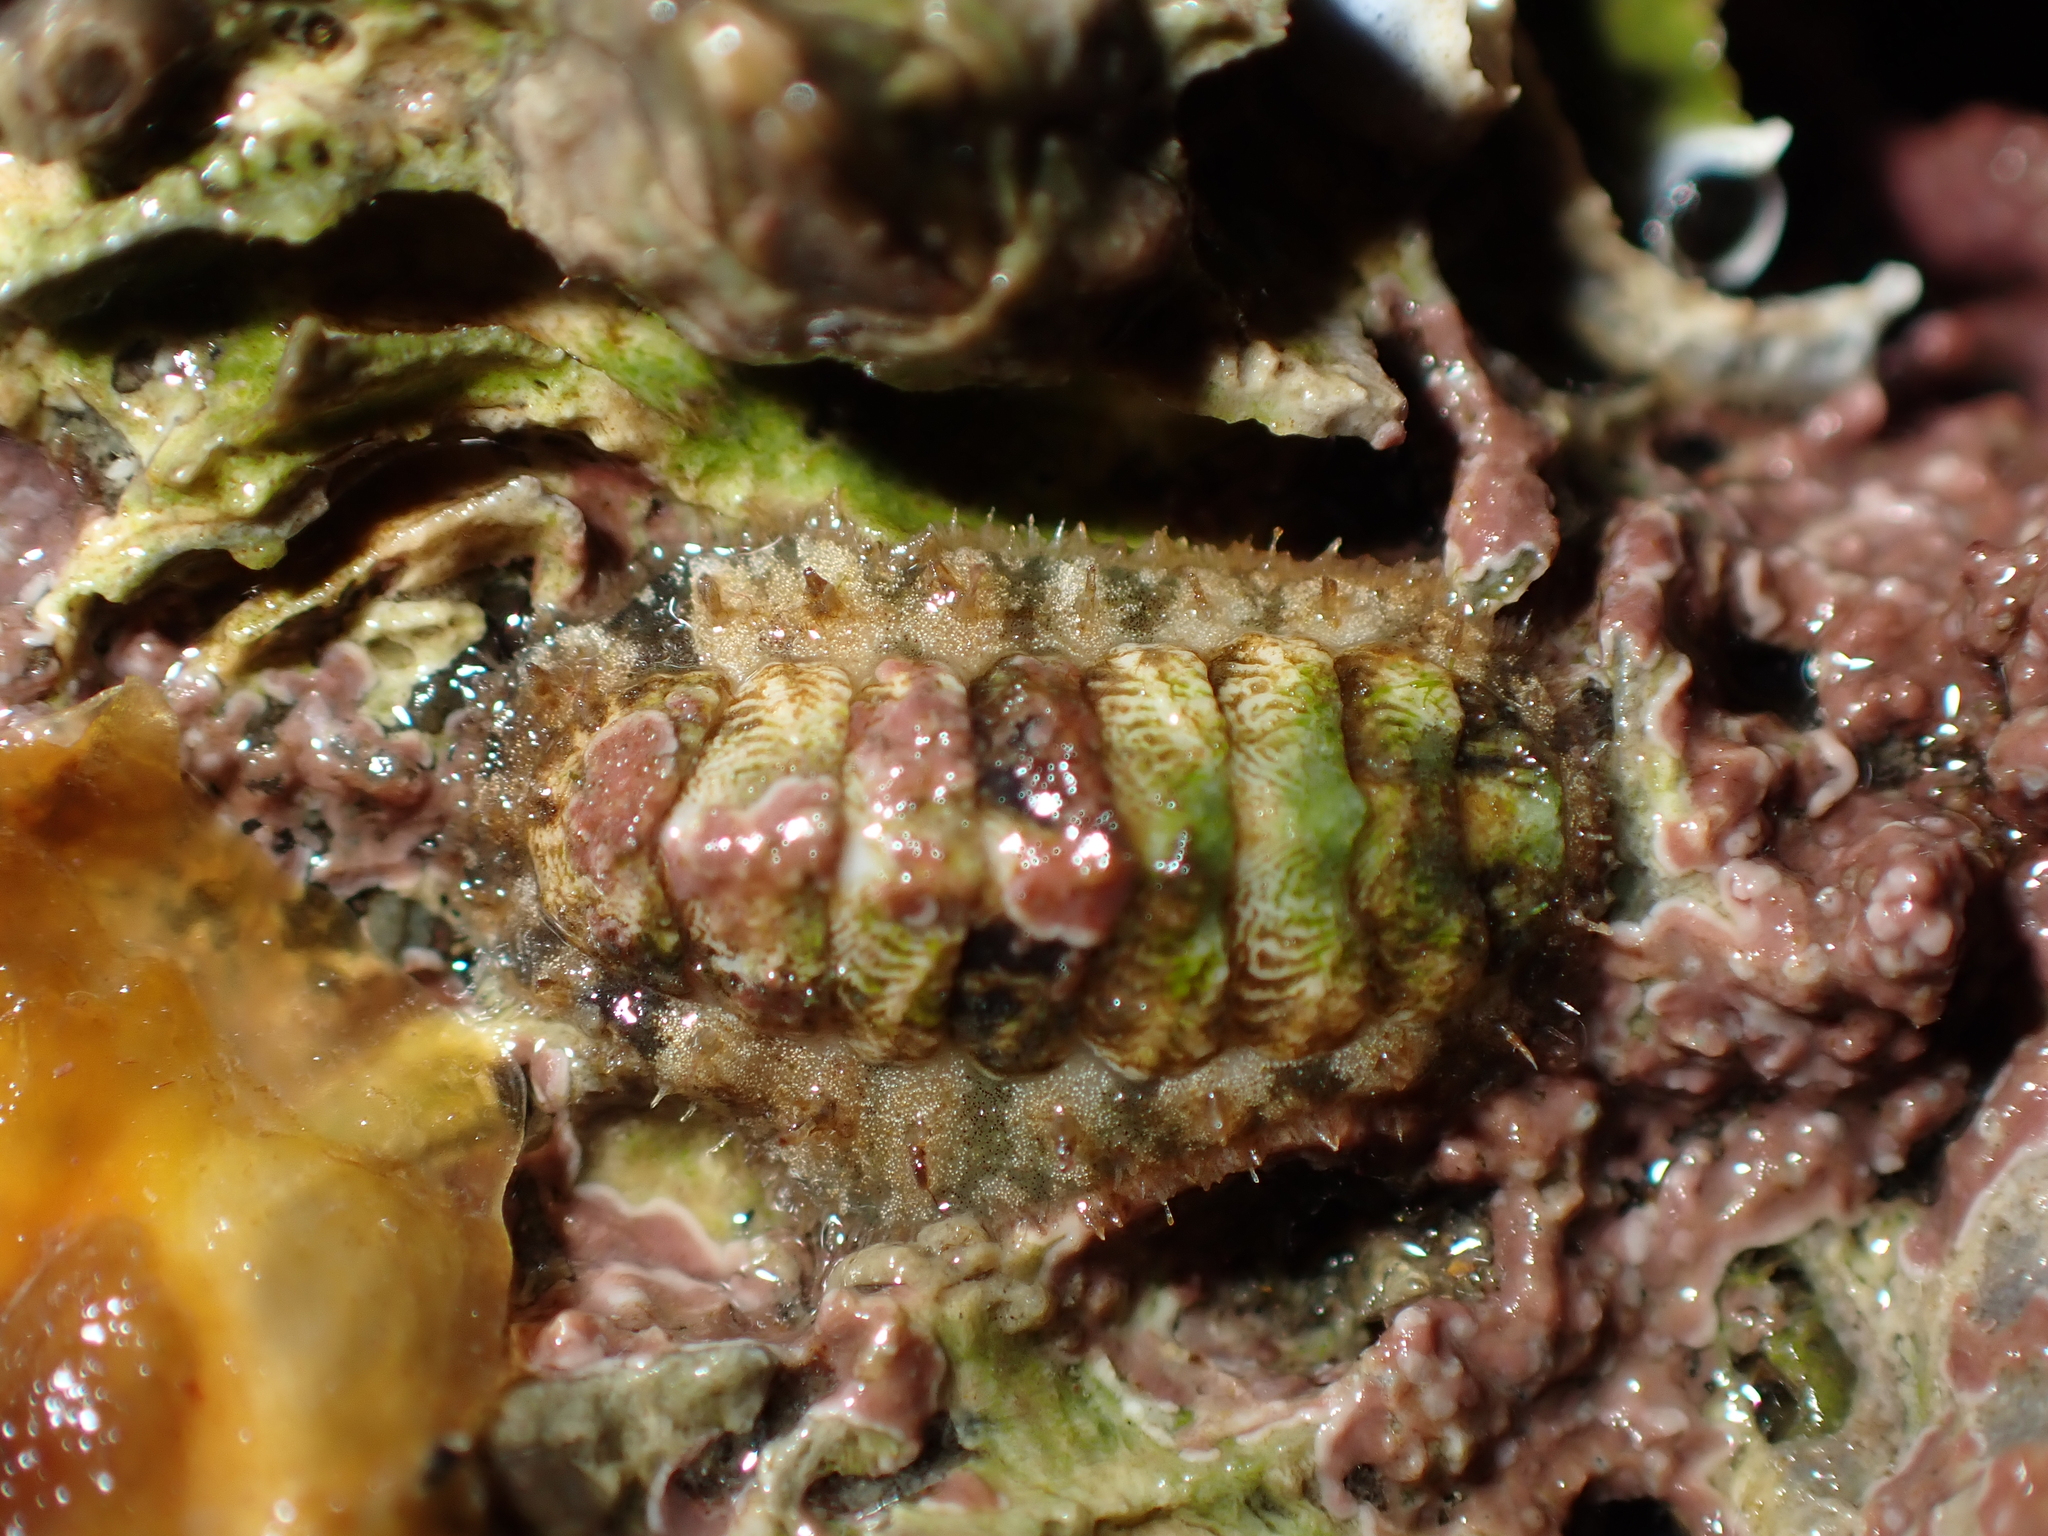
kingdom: Animalia
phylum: Mollusca
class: Polyplacophora
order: Chitonida
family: Mopaliidae
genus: Plaxiphora
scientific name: Plaxiphora caelata
